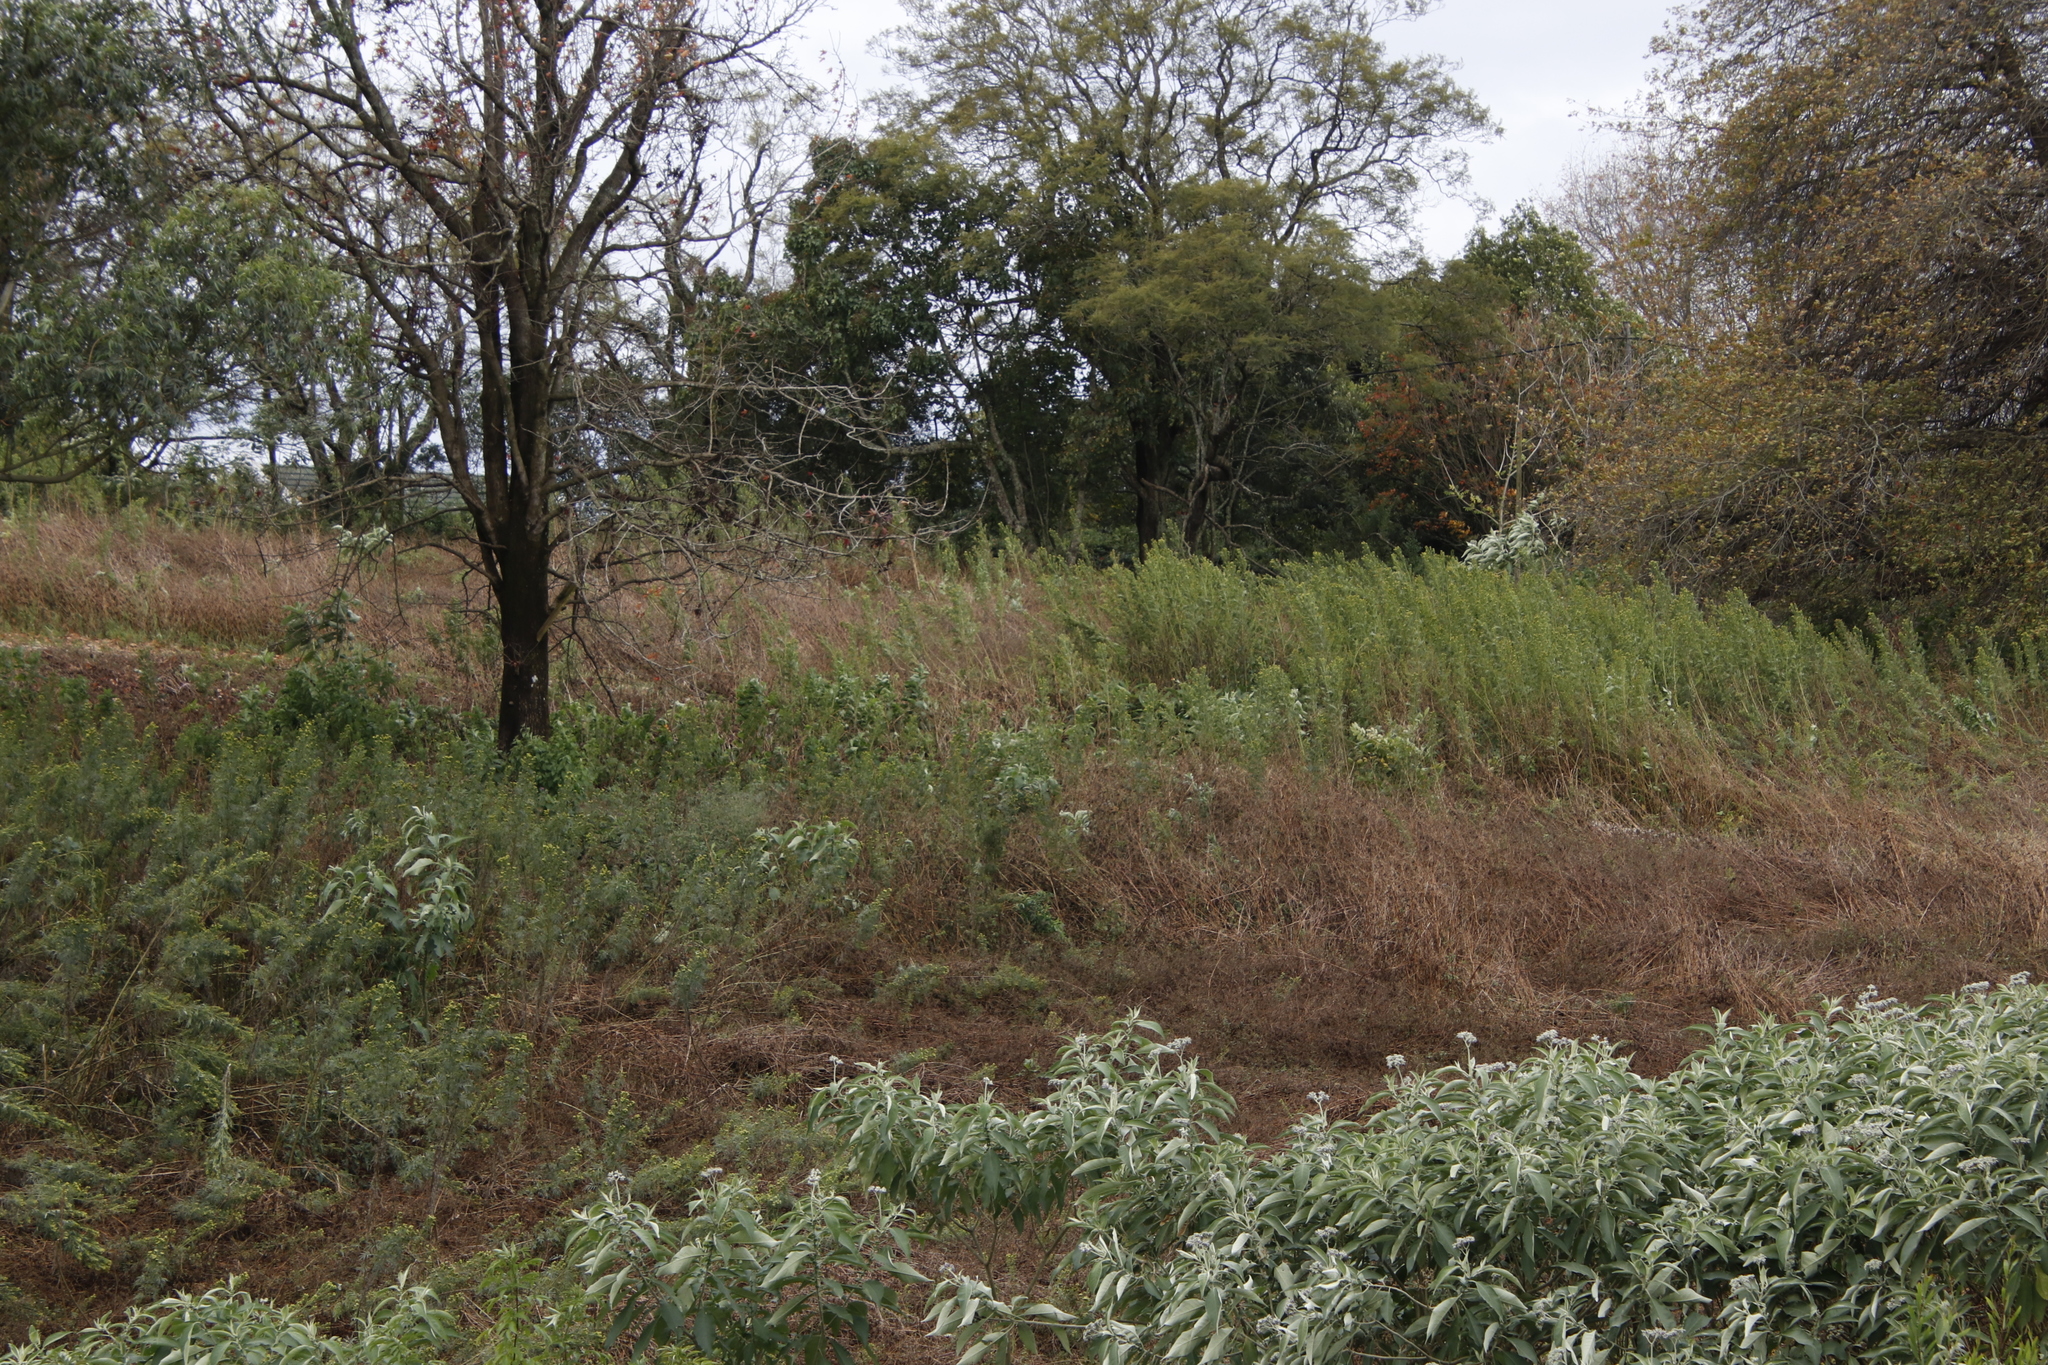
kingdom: Plantae
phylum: Tracheophyta
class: Magnoliopsida
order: Asterales
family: Asteraceae
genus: Tagetes
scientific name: Tagetes minuta
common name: Muster john henry
